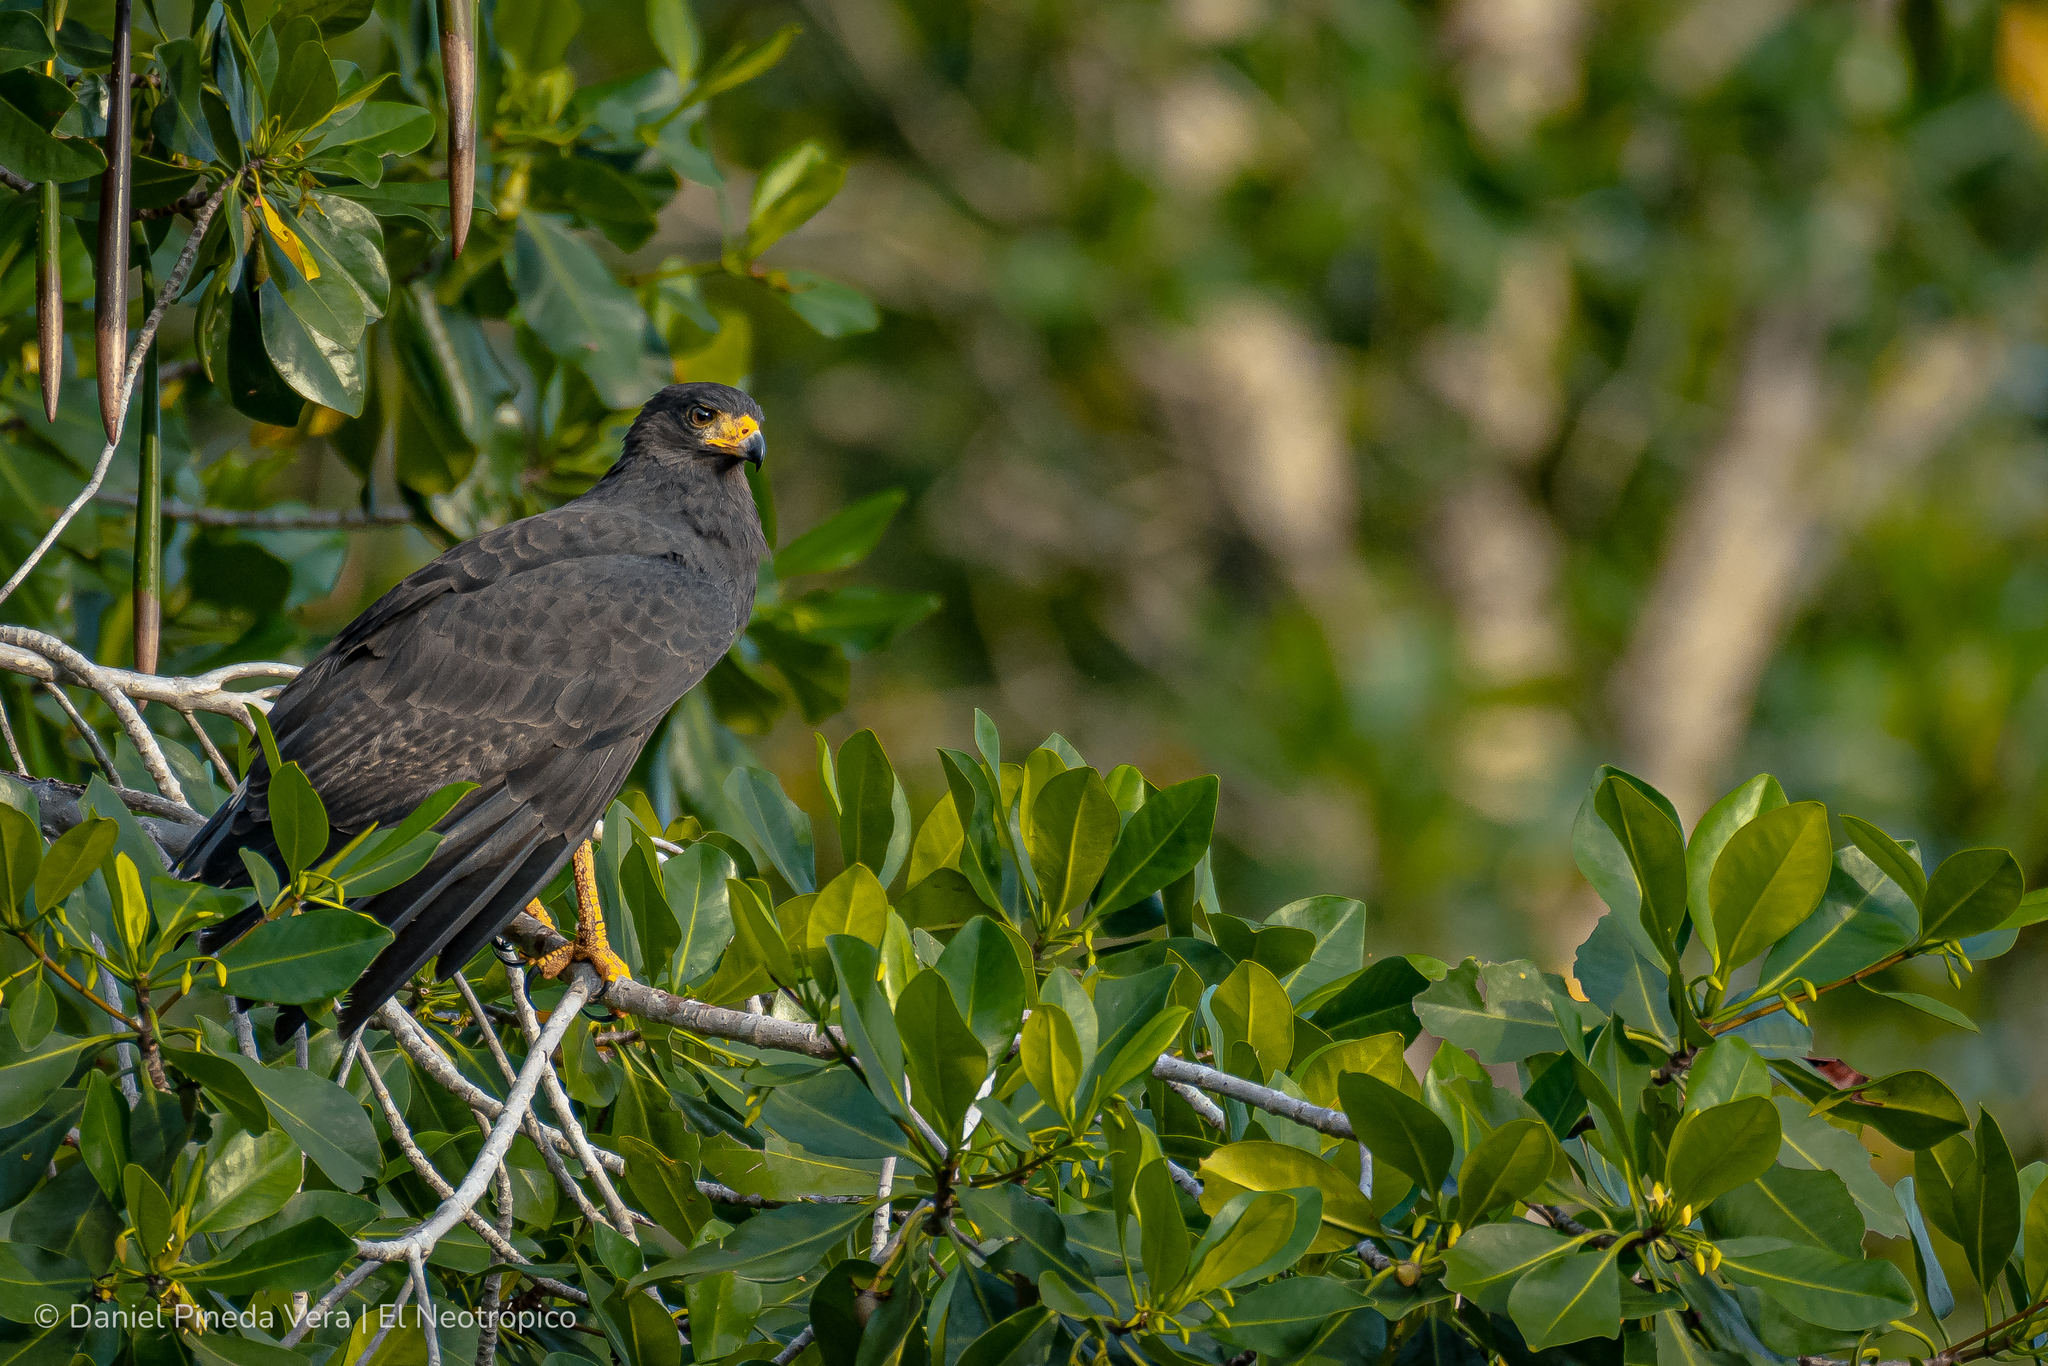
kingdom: Animalia
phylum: Chordata
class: Aves
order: Accipitriformes
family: Accipitridae
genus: Buteogallus
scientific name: Buteogallus anthracinus
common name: Common black hawk
